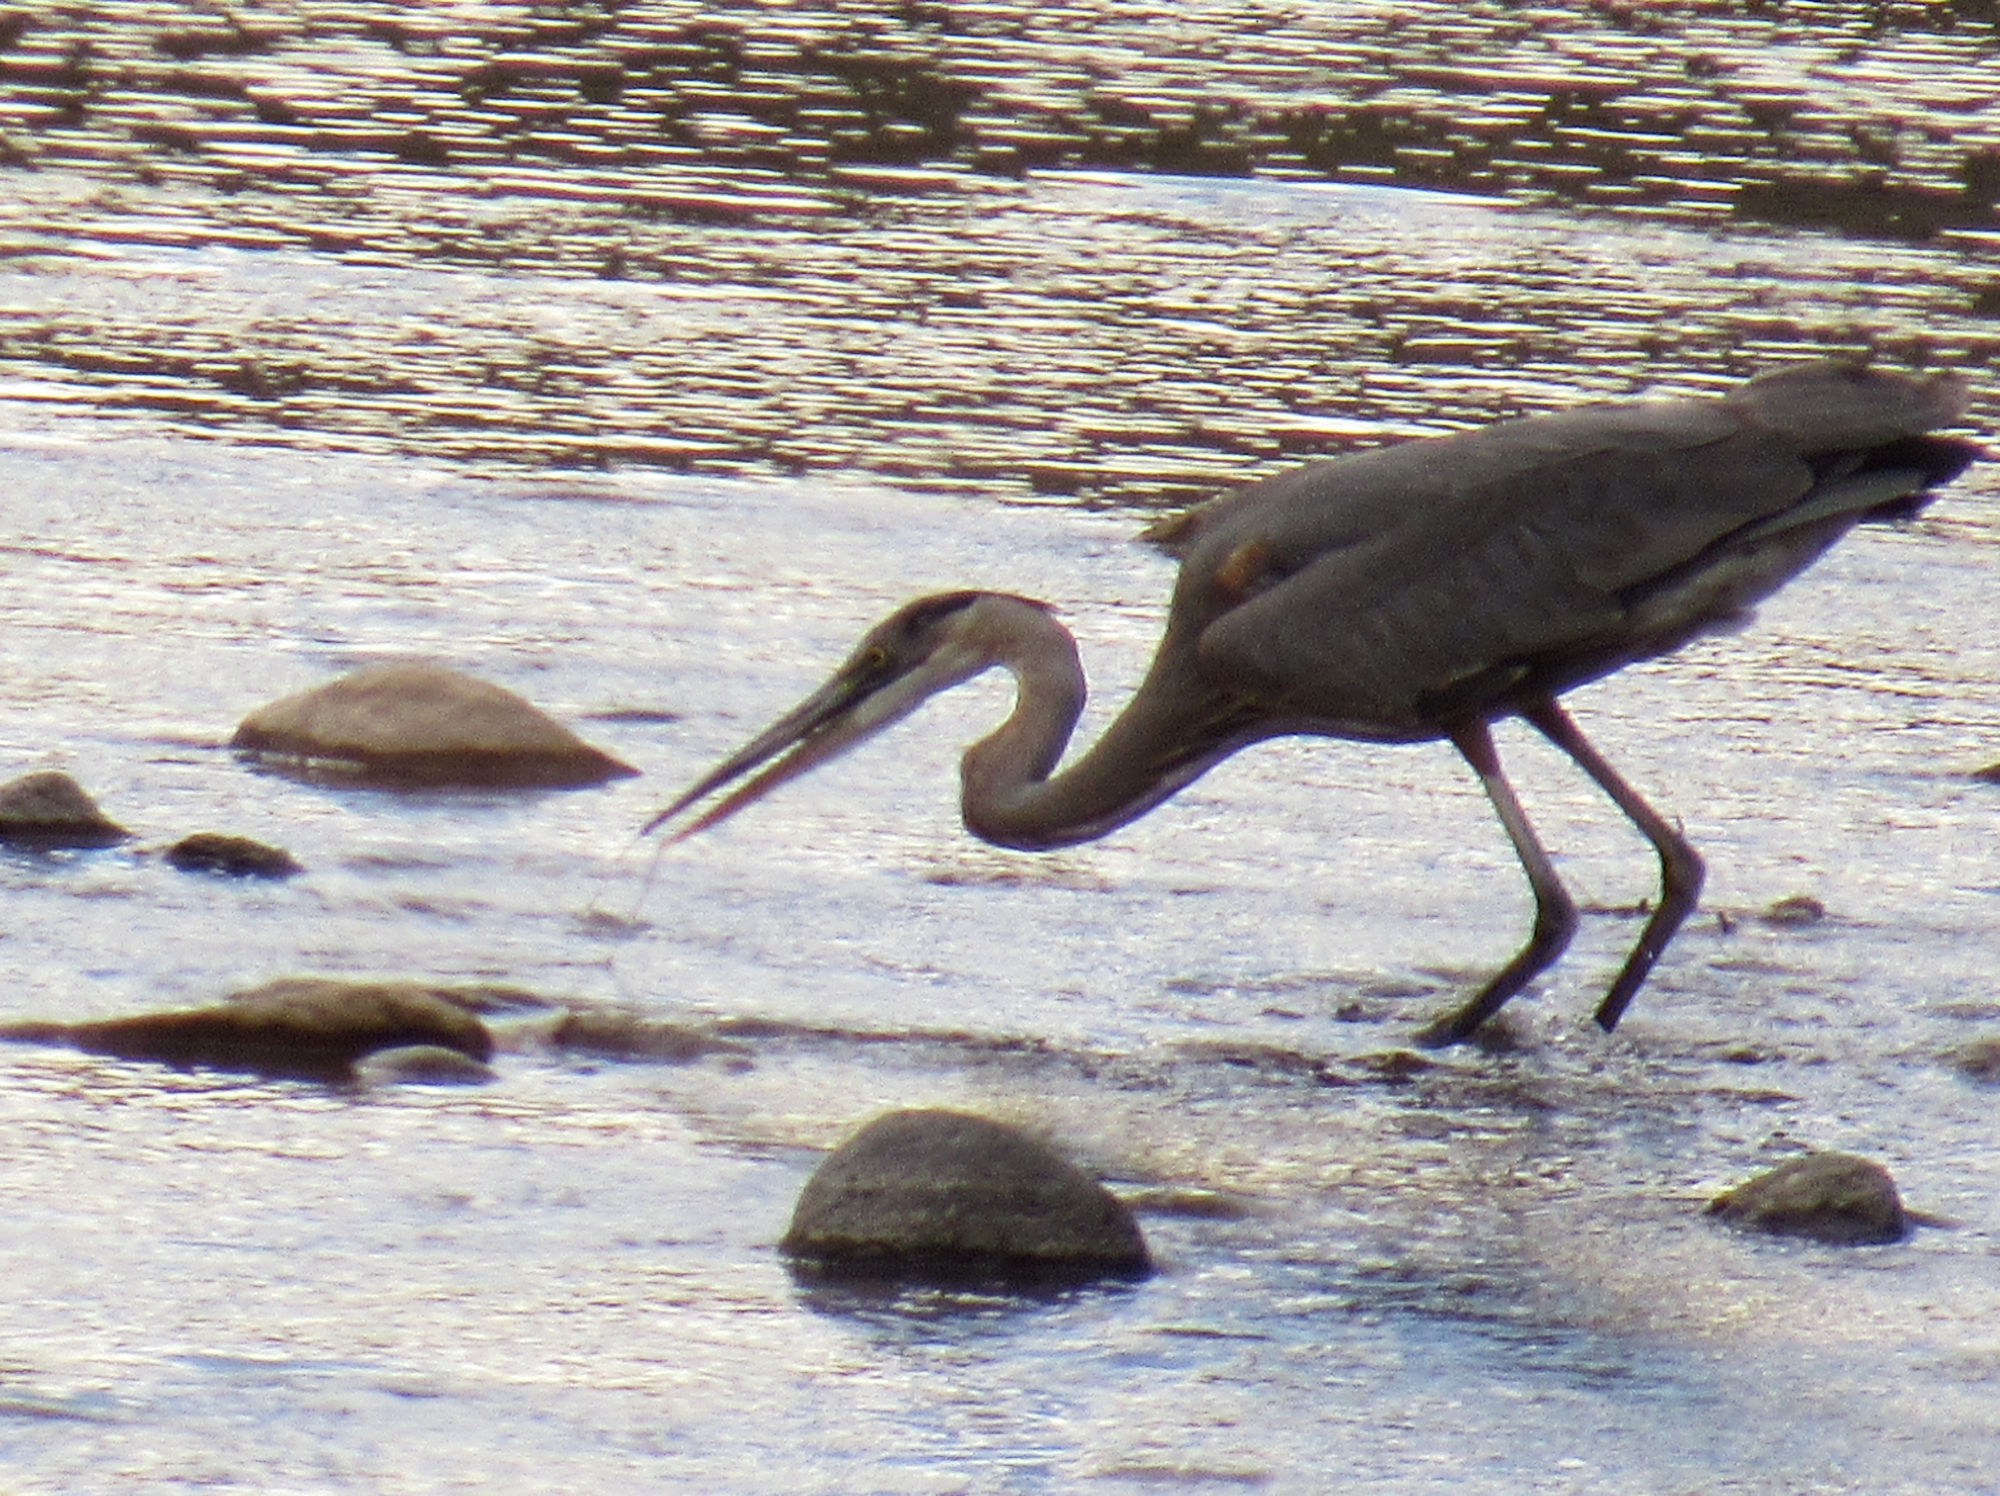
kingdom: Animalia
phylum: Chordata
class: Aves
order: Pelecaniformes
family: Ardeidae
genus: Ardea
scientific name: Ardea herodias
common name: Great blue heron
